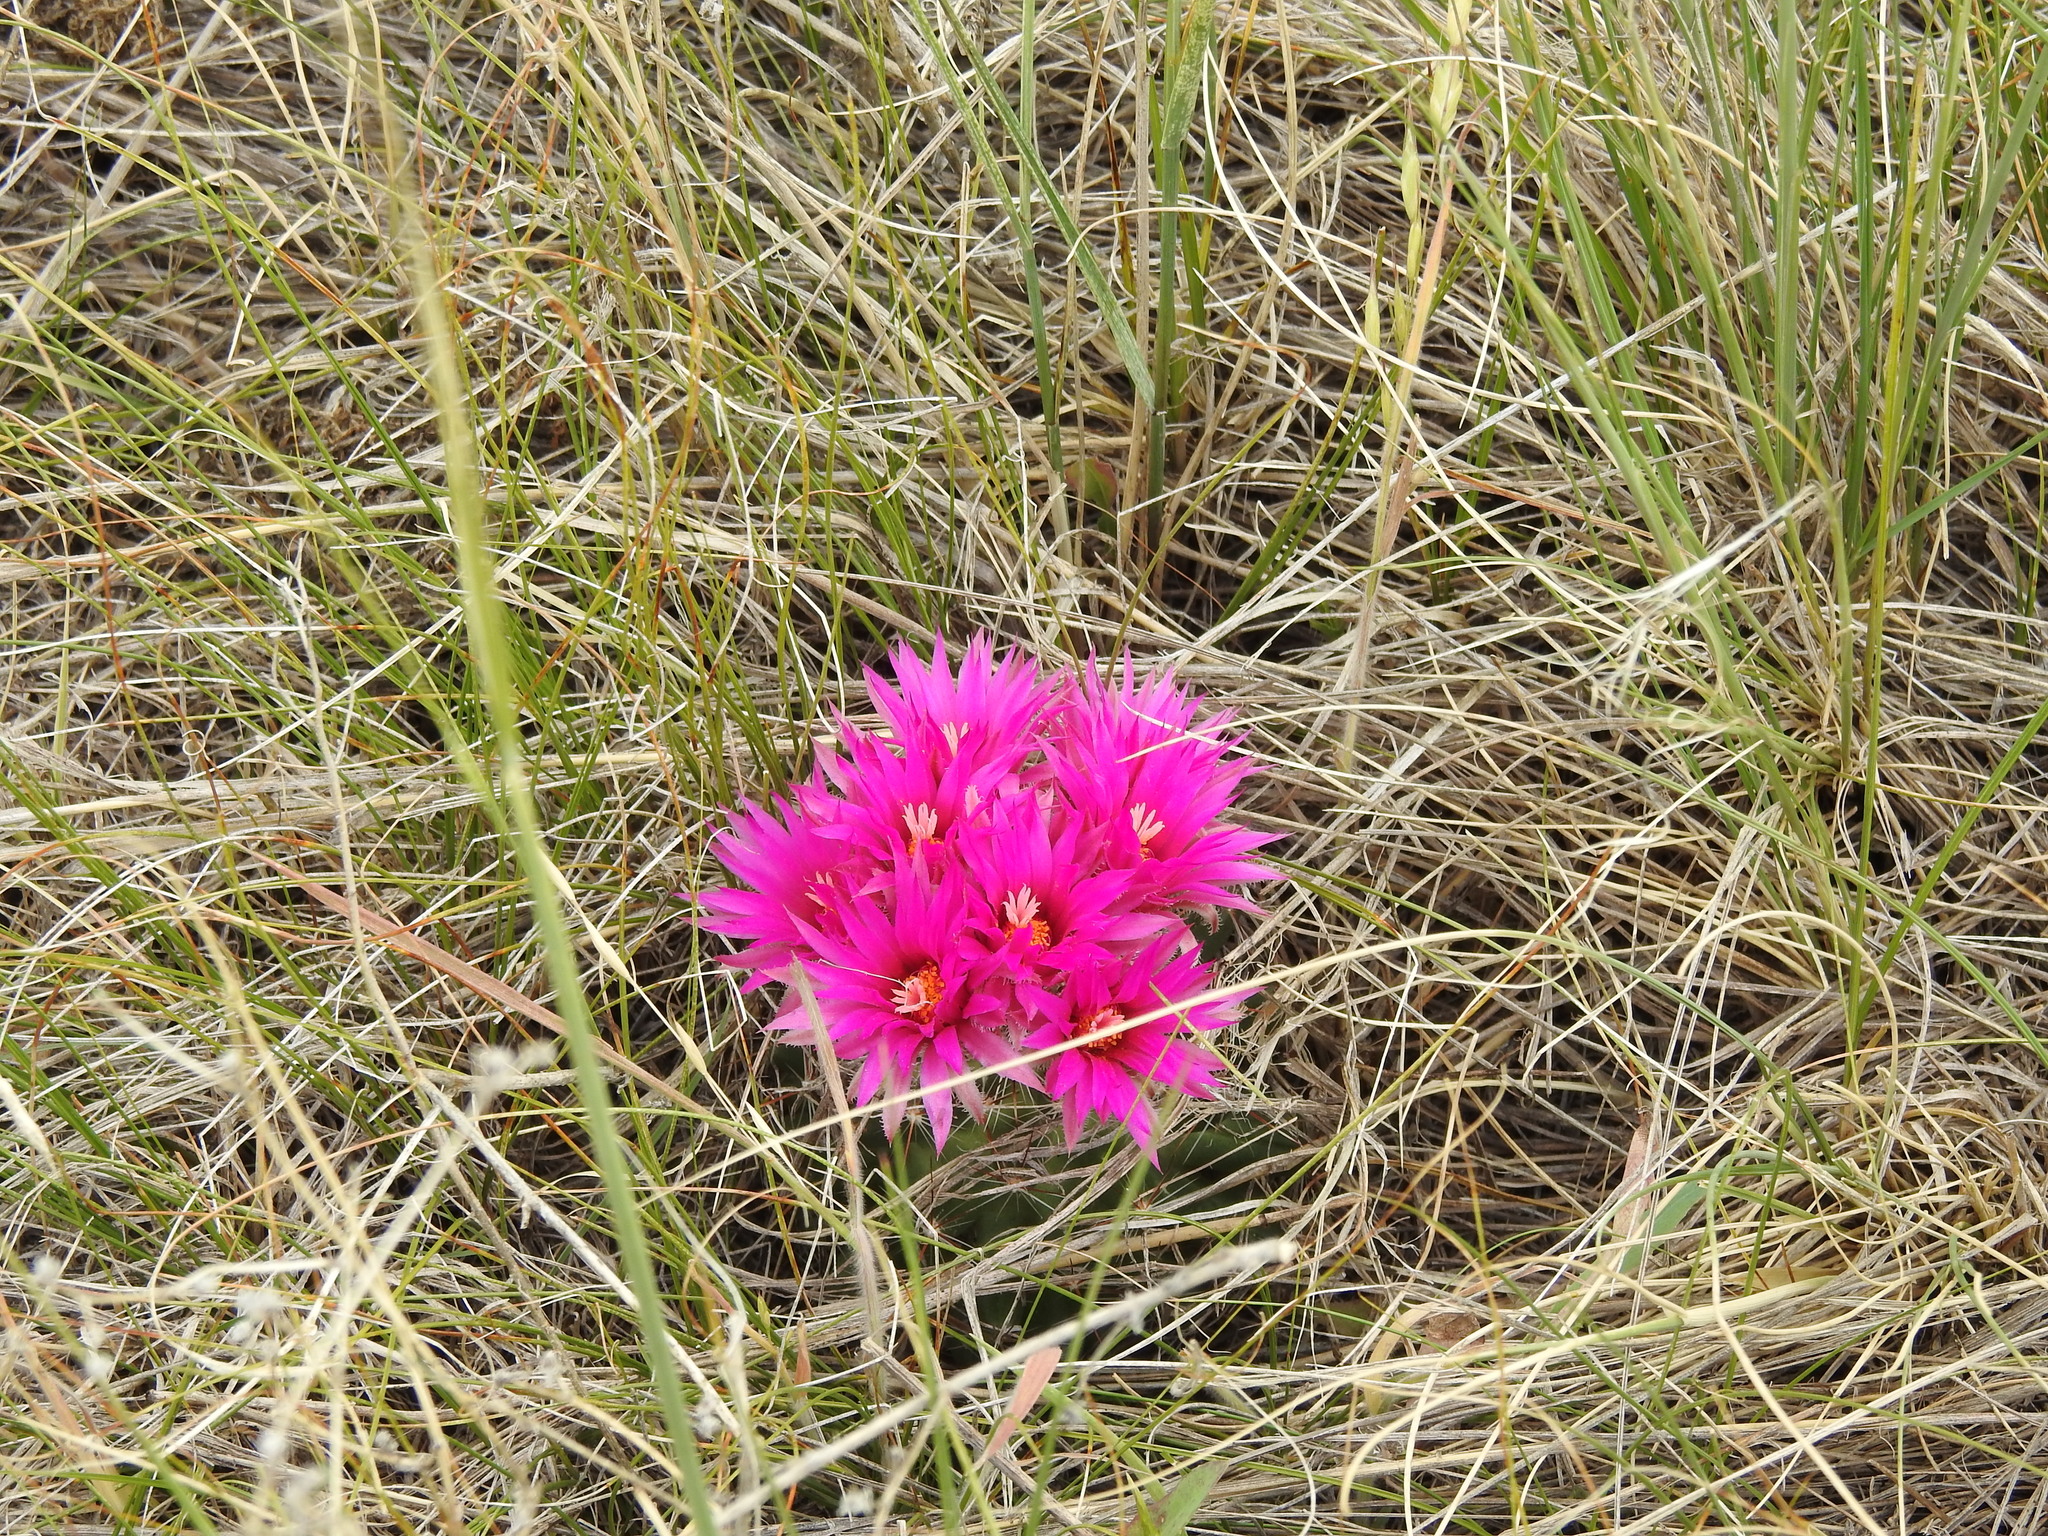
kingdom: Plantae
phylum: Tracheophyta
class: Magnoliopsida
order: Caryophyllales
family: Cactaceae
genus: Pelecyphora
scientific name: Pelecyphora vivipara
